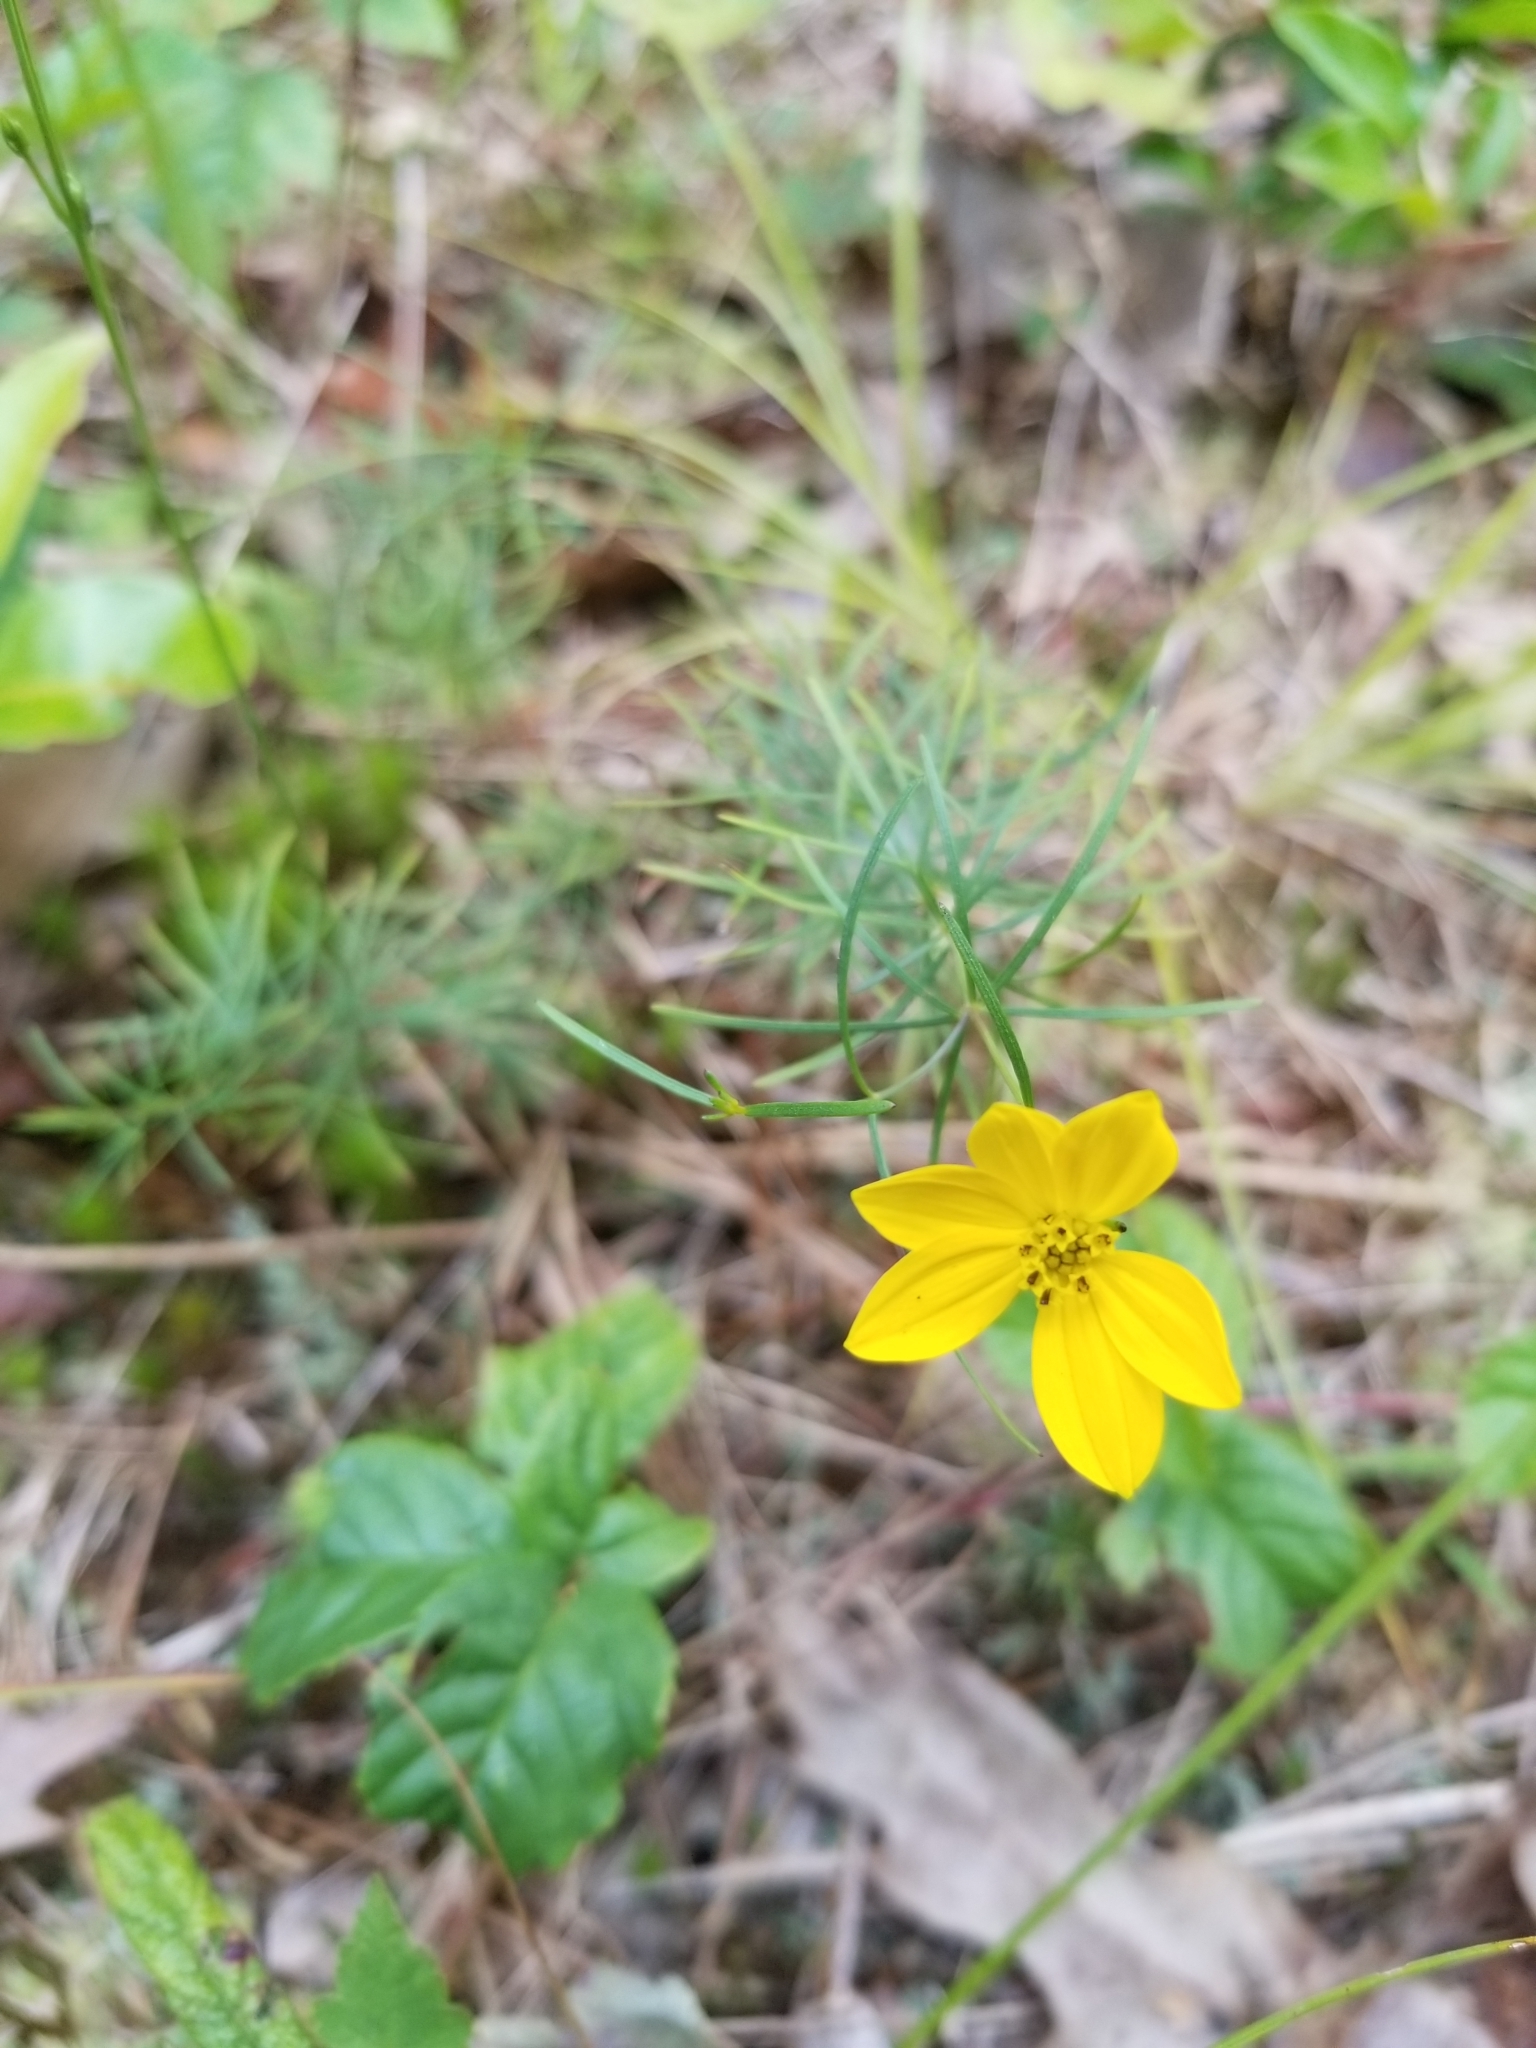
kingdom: Plantae
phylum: Tracheophyta
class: Magnoliopsida
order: Asterales
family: Asteraceae
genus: Coreopsis
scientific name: Coreopsis verticillata
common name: Whorled tickseed
